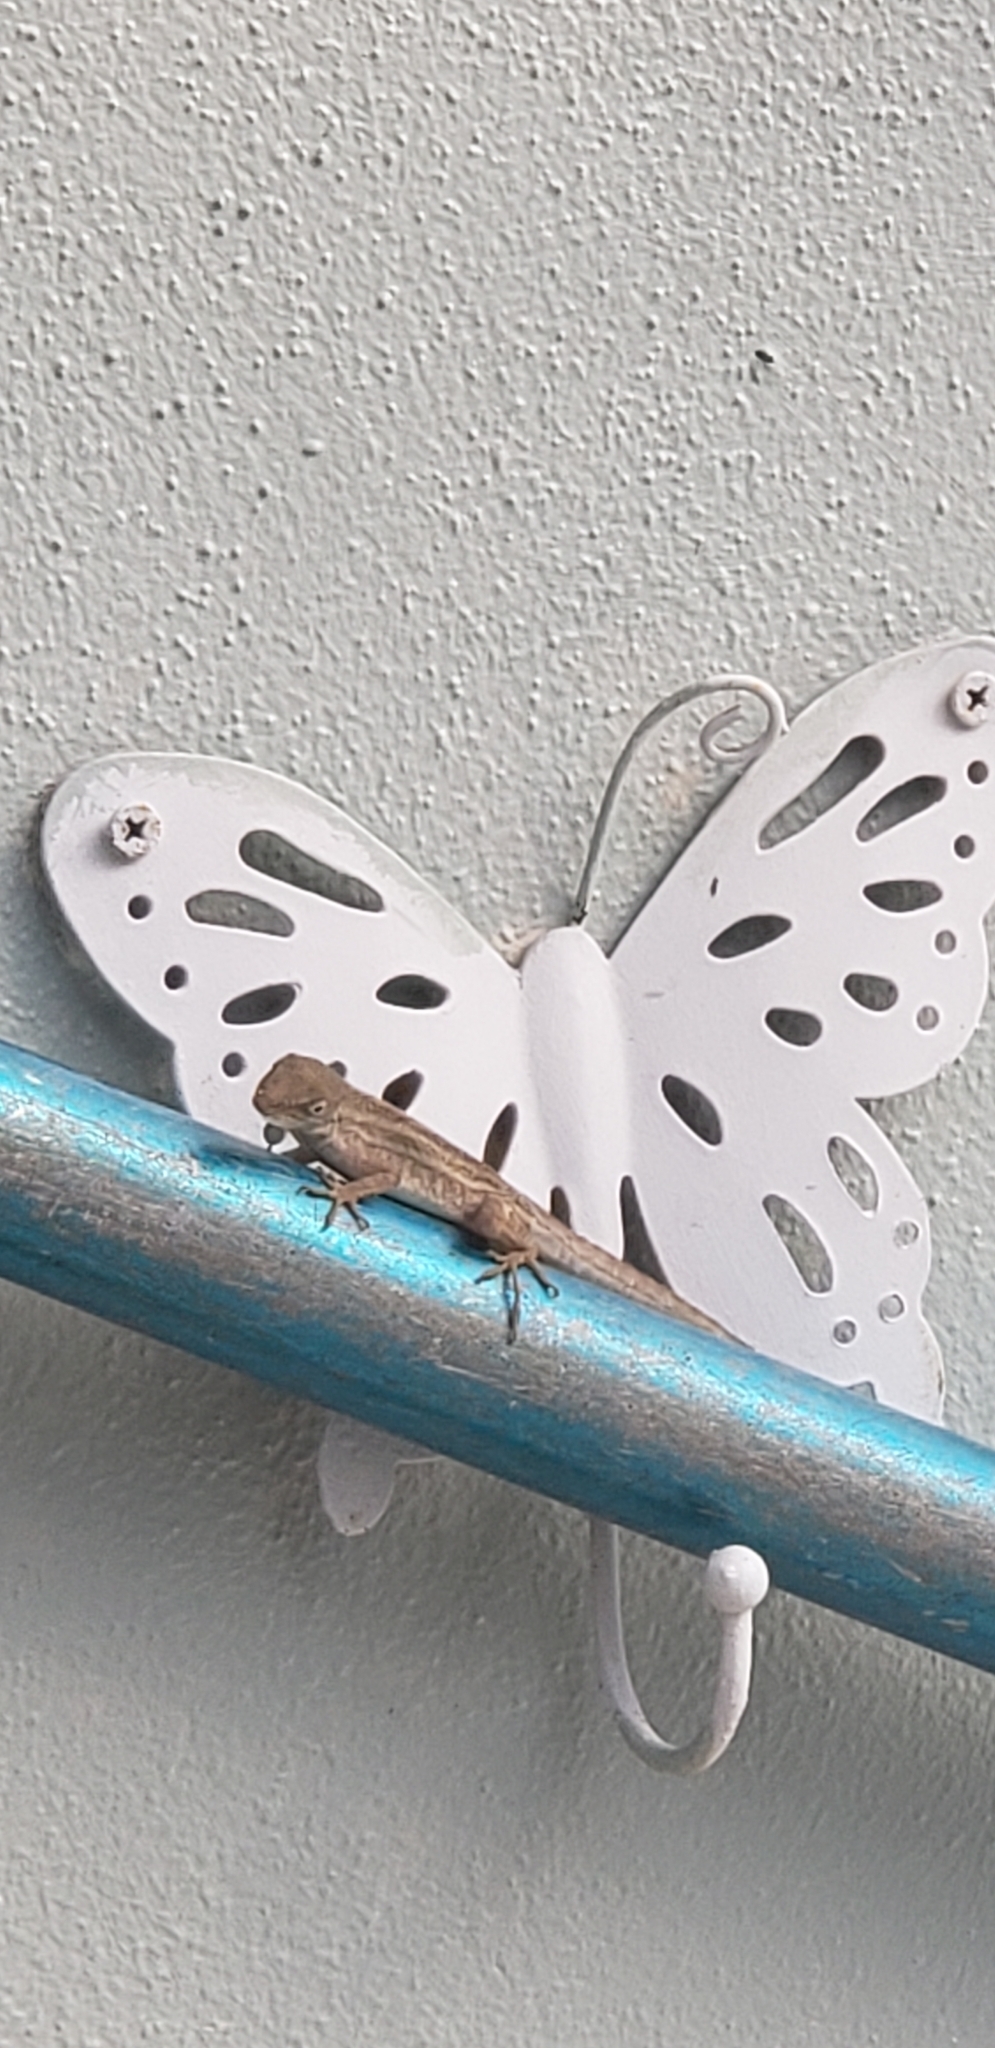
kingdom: Animalia
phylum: Chordata
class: Squamata
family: Dactyloidae
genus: Anolis
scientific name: Anolis sagrei
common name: Brown anole
